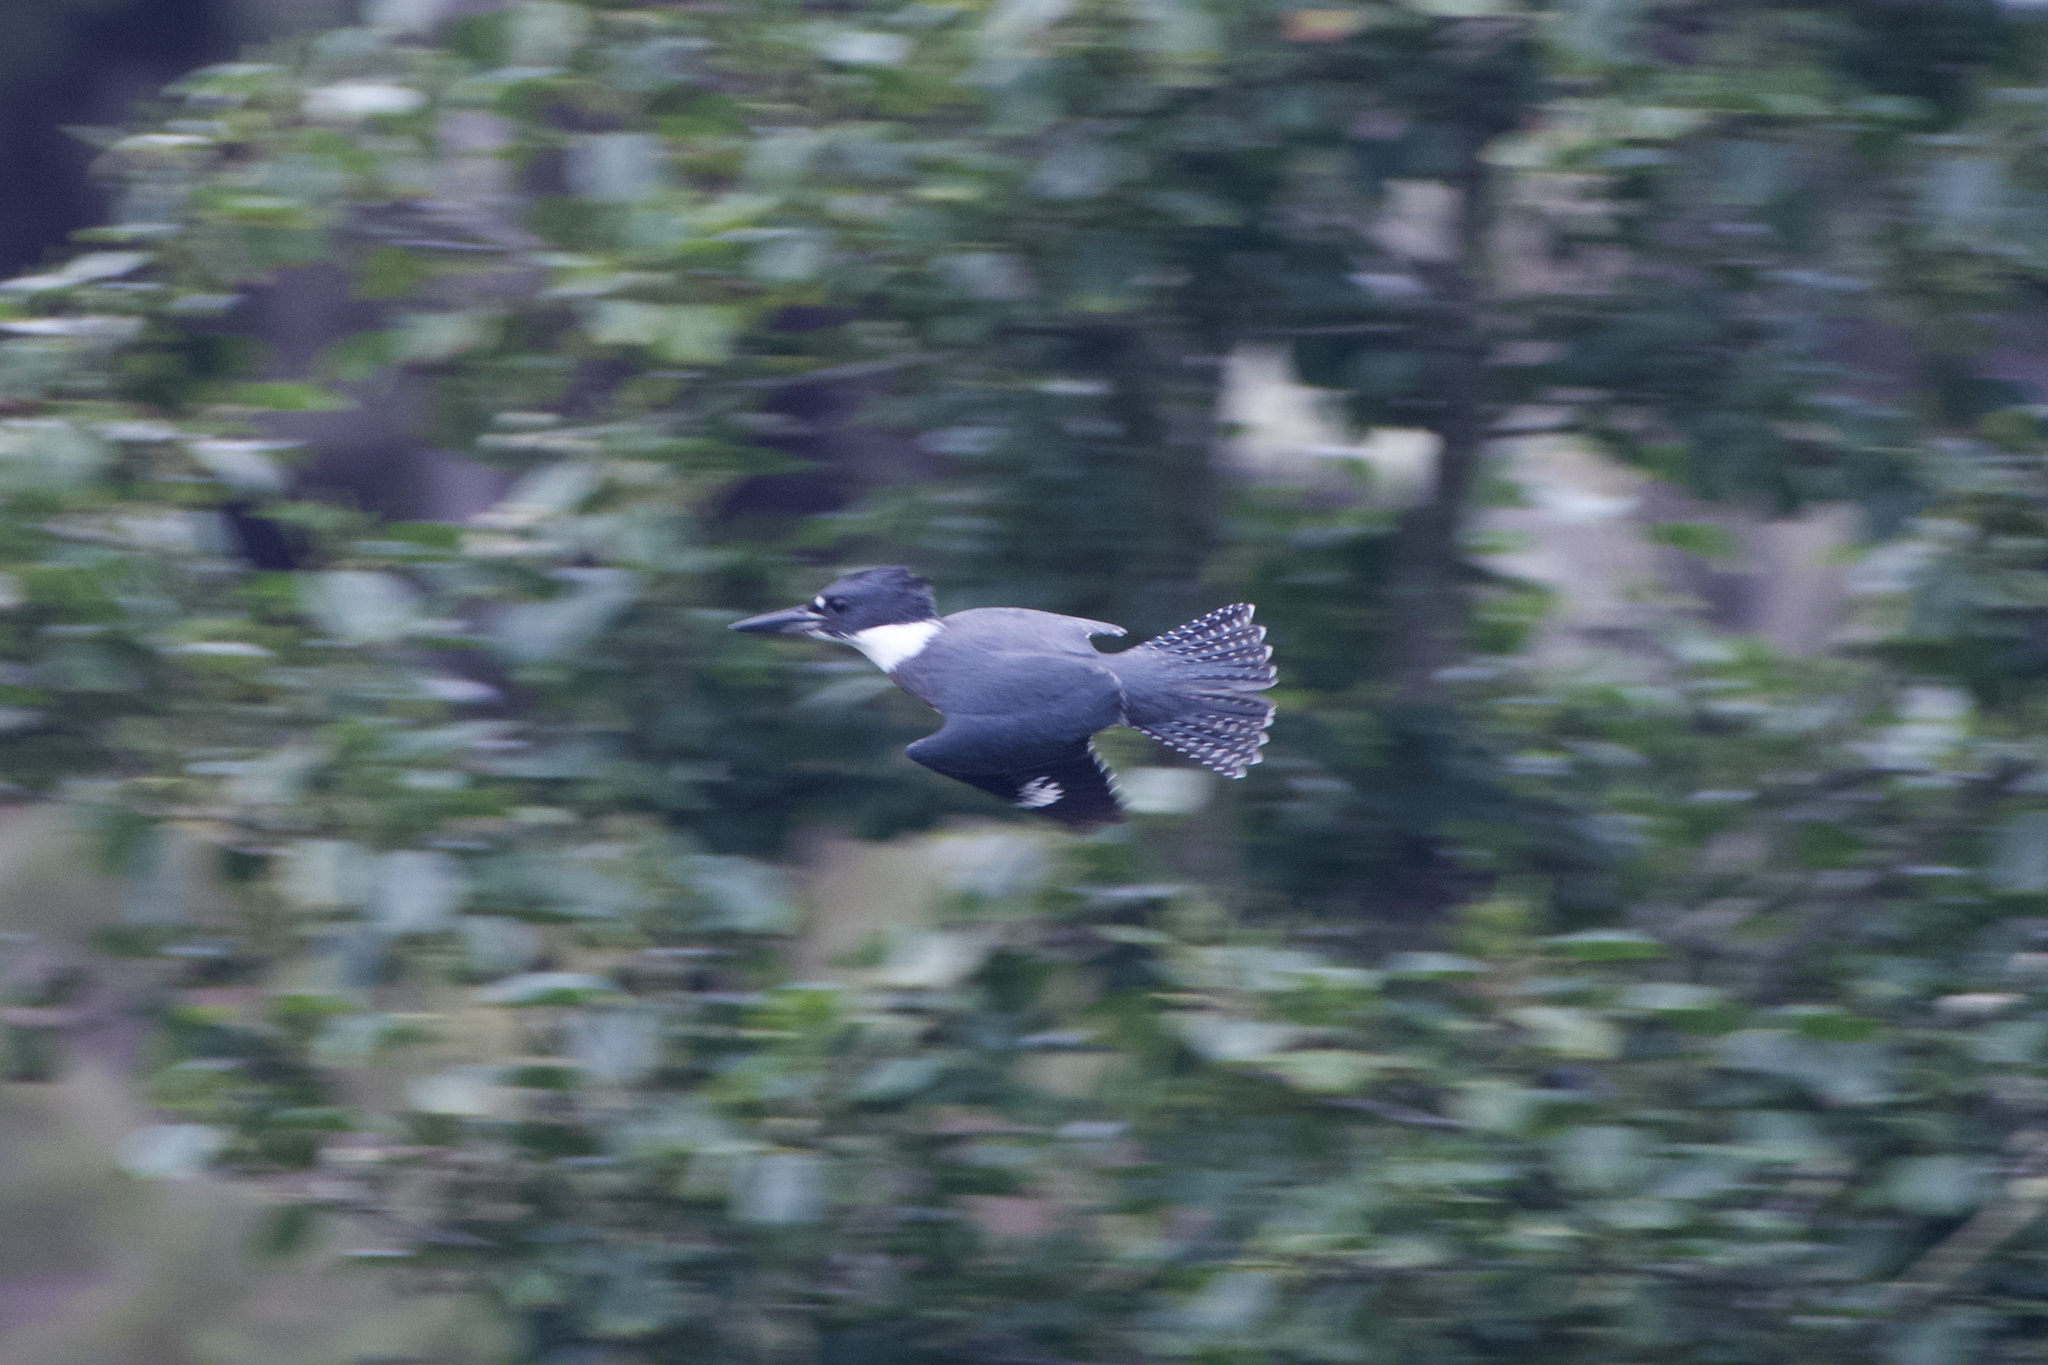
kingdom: Animalia
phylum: Chordata
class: Aves
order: Coraciiformes
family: Alcedinidae
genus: Megaceryle
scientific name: Megaceryle alcyon
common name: Belted kingfisher
